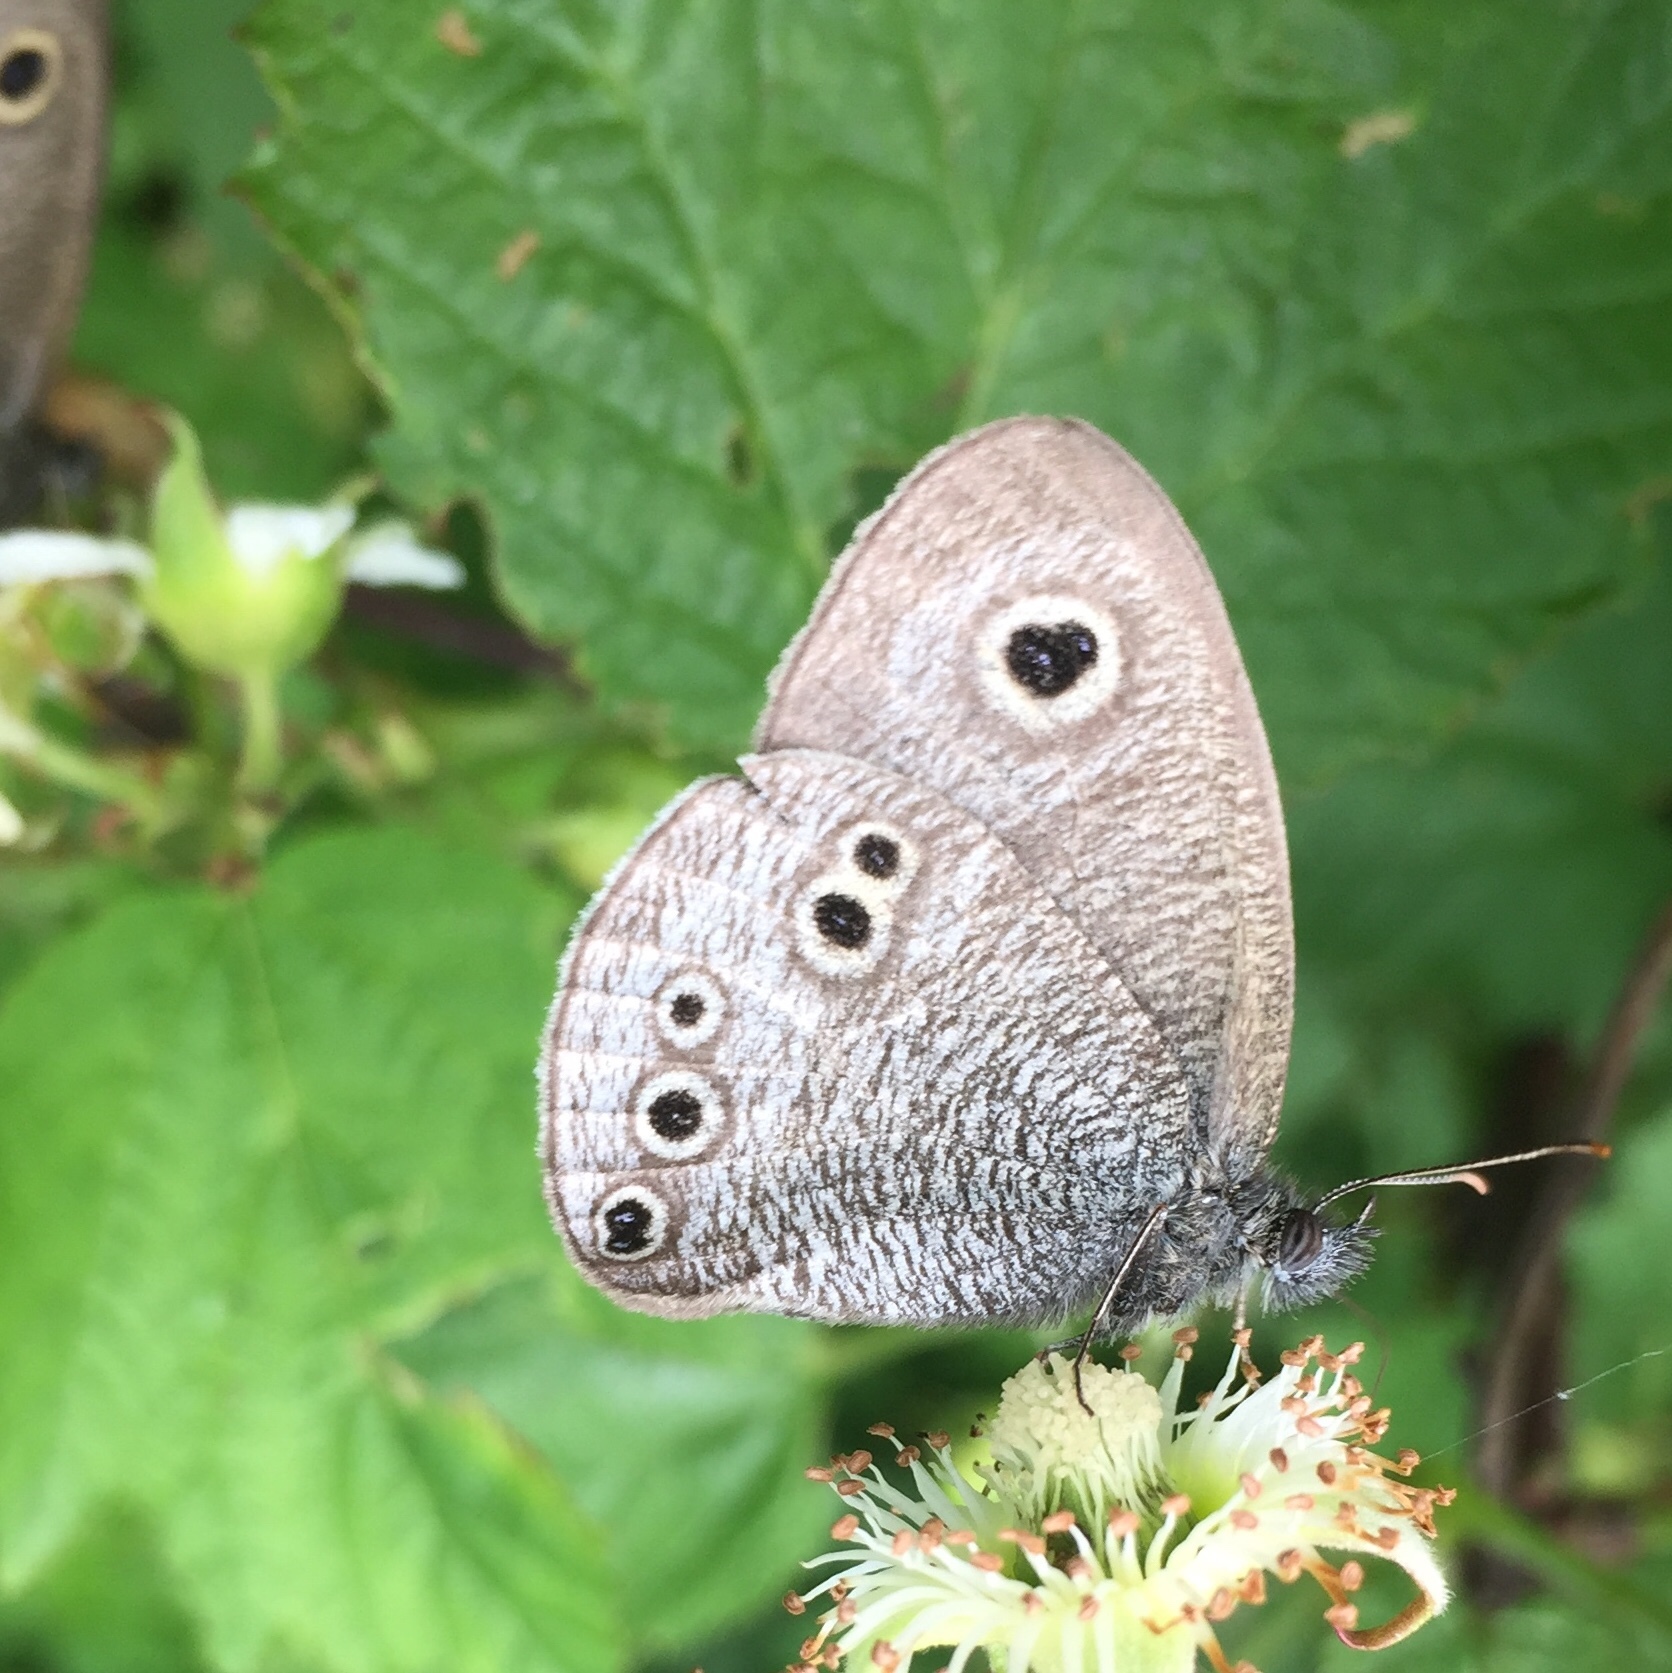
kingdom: Animalia
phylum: Arthropoda
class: Insecta
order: Lepidoptera
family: Nymphalidae
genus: Ypthima
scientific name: Ypthima argus
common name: Common fivering
